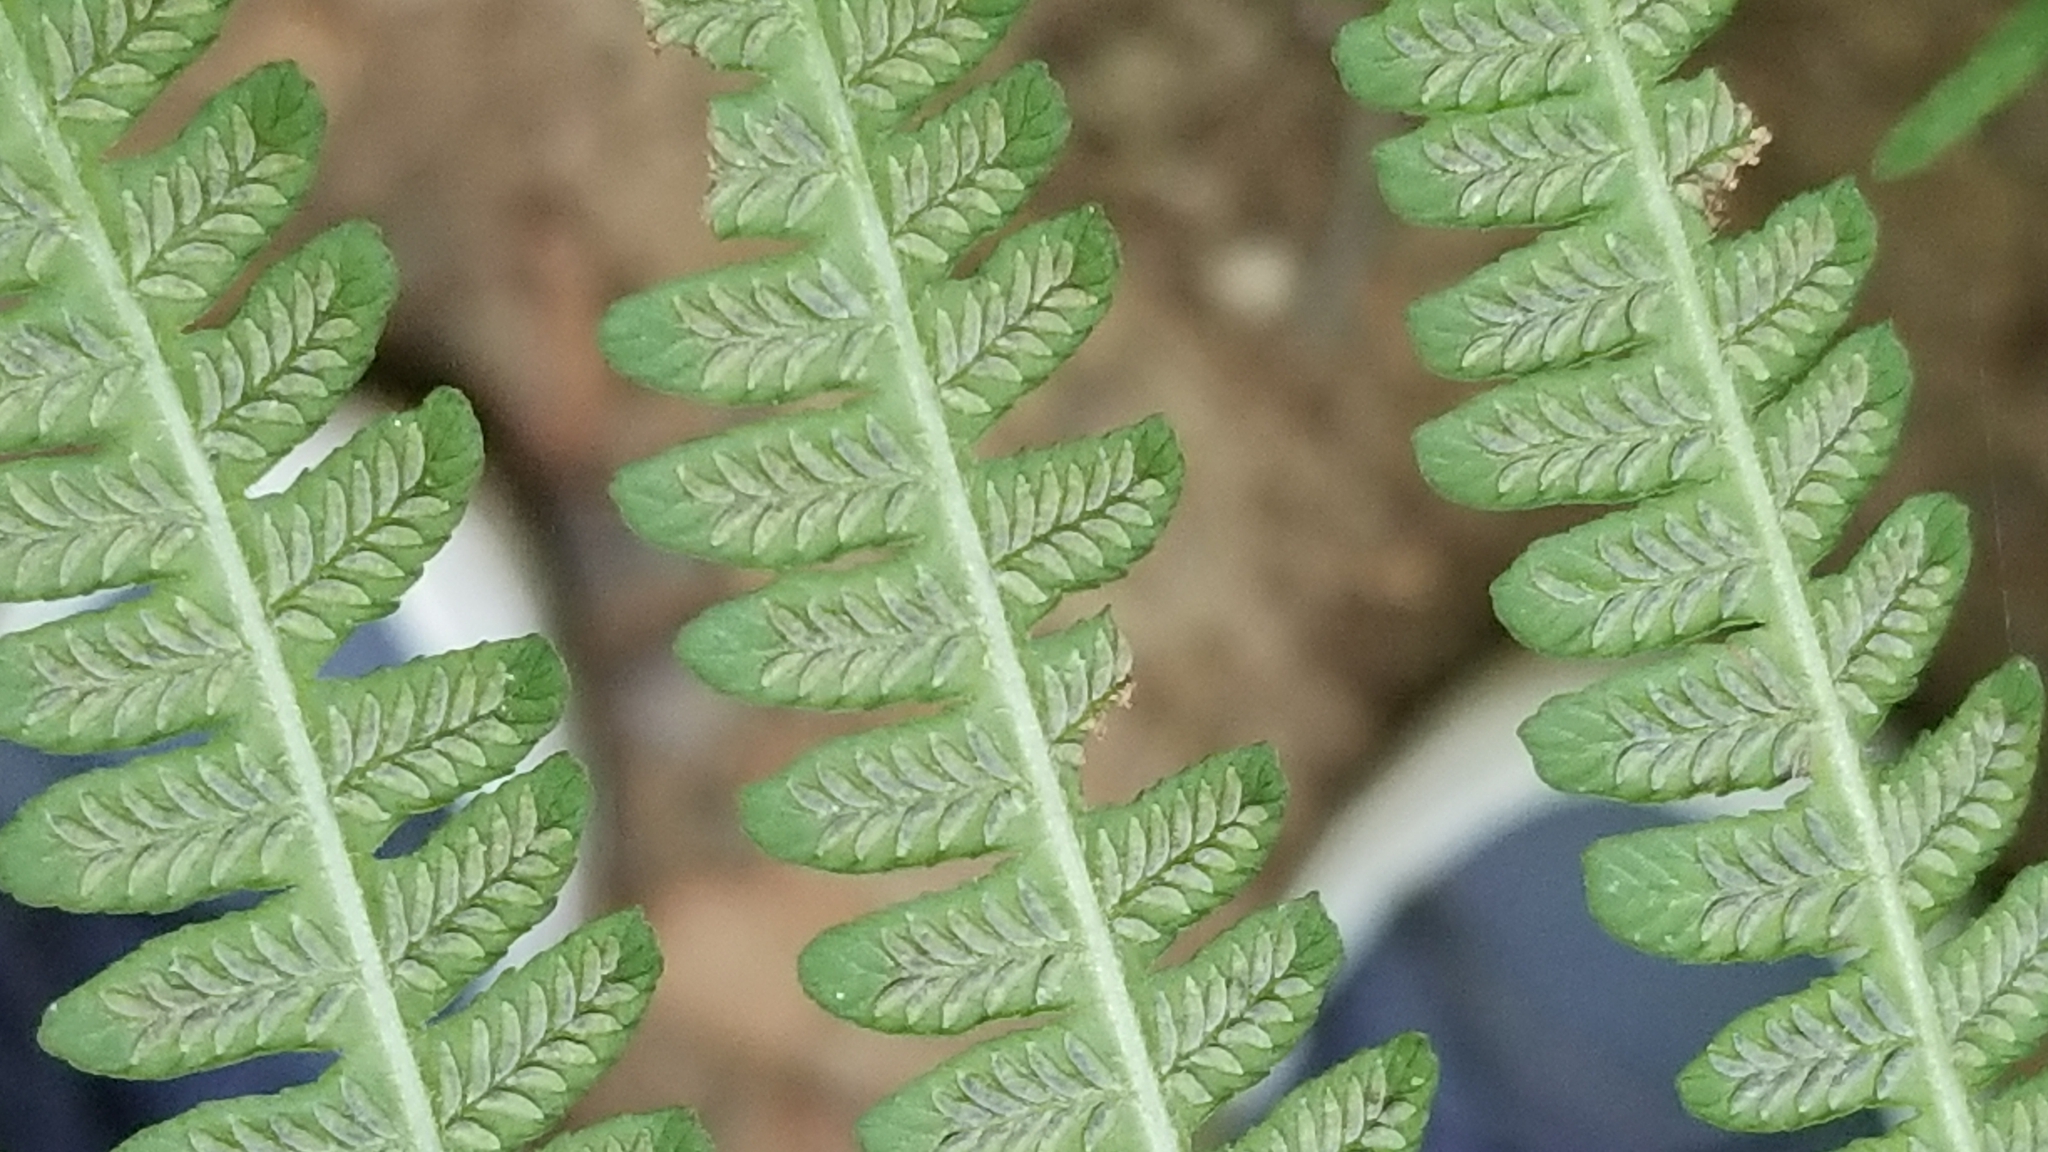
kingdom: Plantae
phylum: Tracheophyta
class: Polypodiopsida
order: Polypodiales
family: Athyriaceae
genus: Deparia
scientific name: Deparia acrostichoides
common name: Silver false spleenwort
